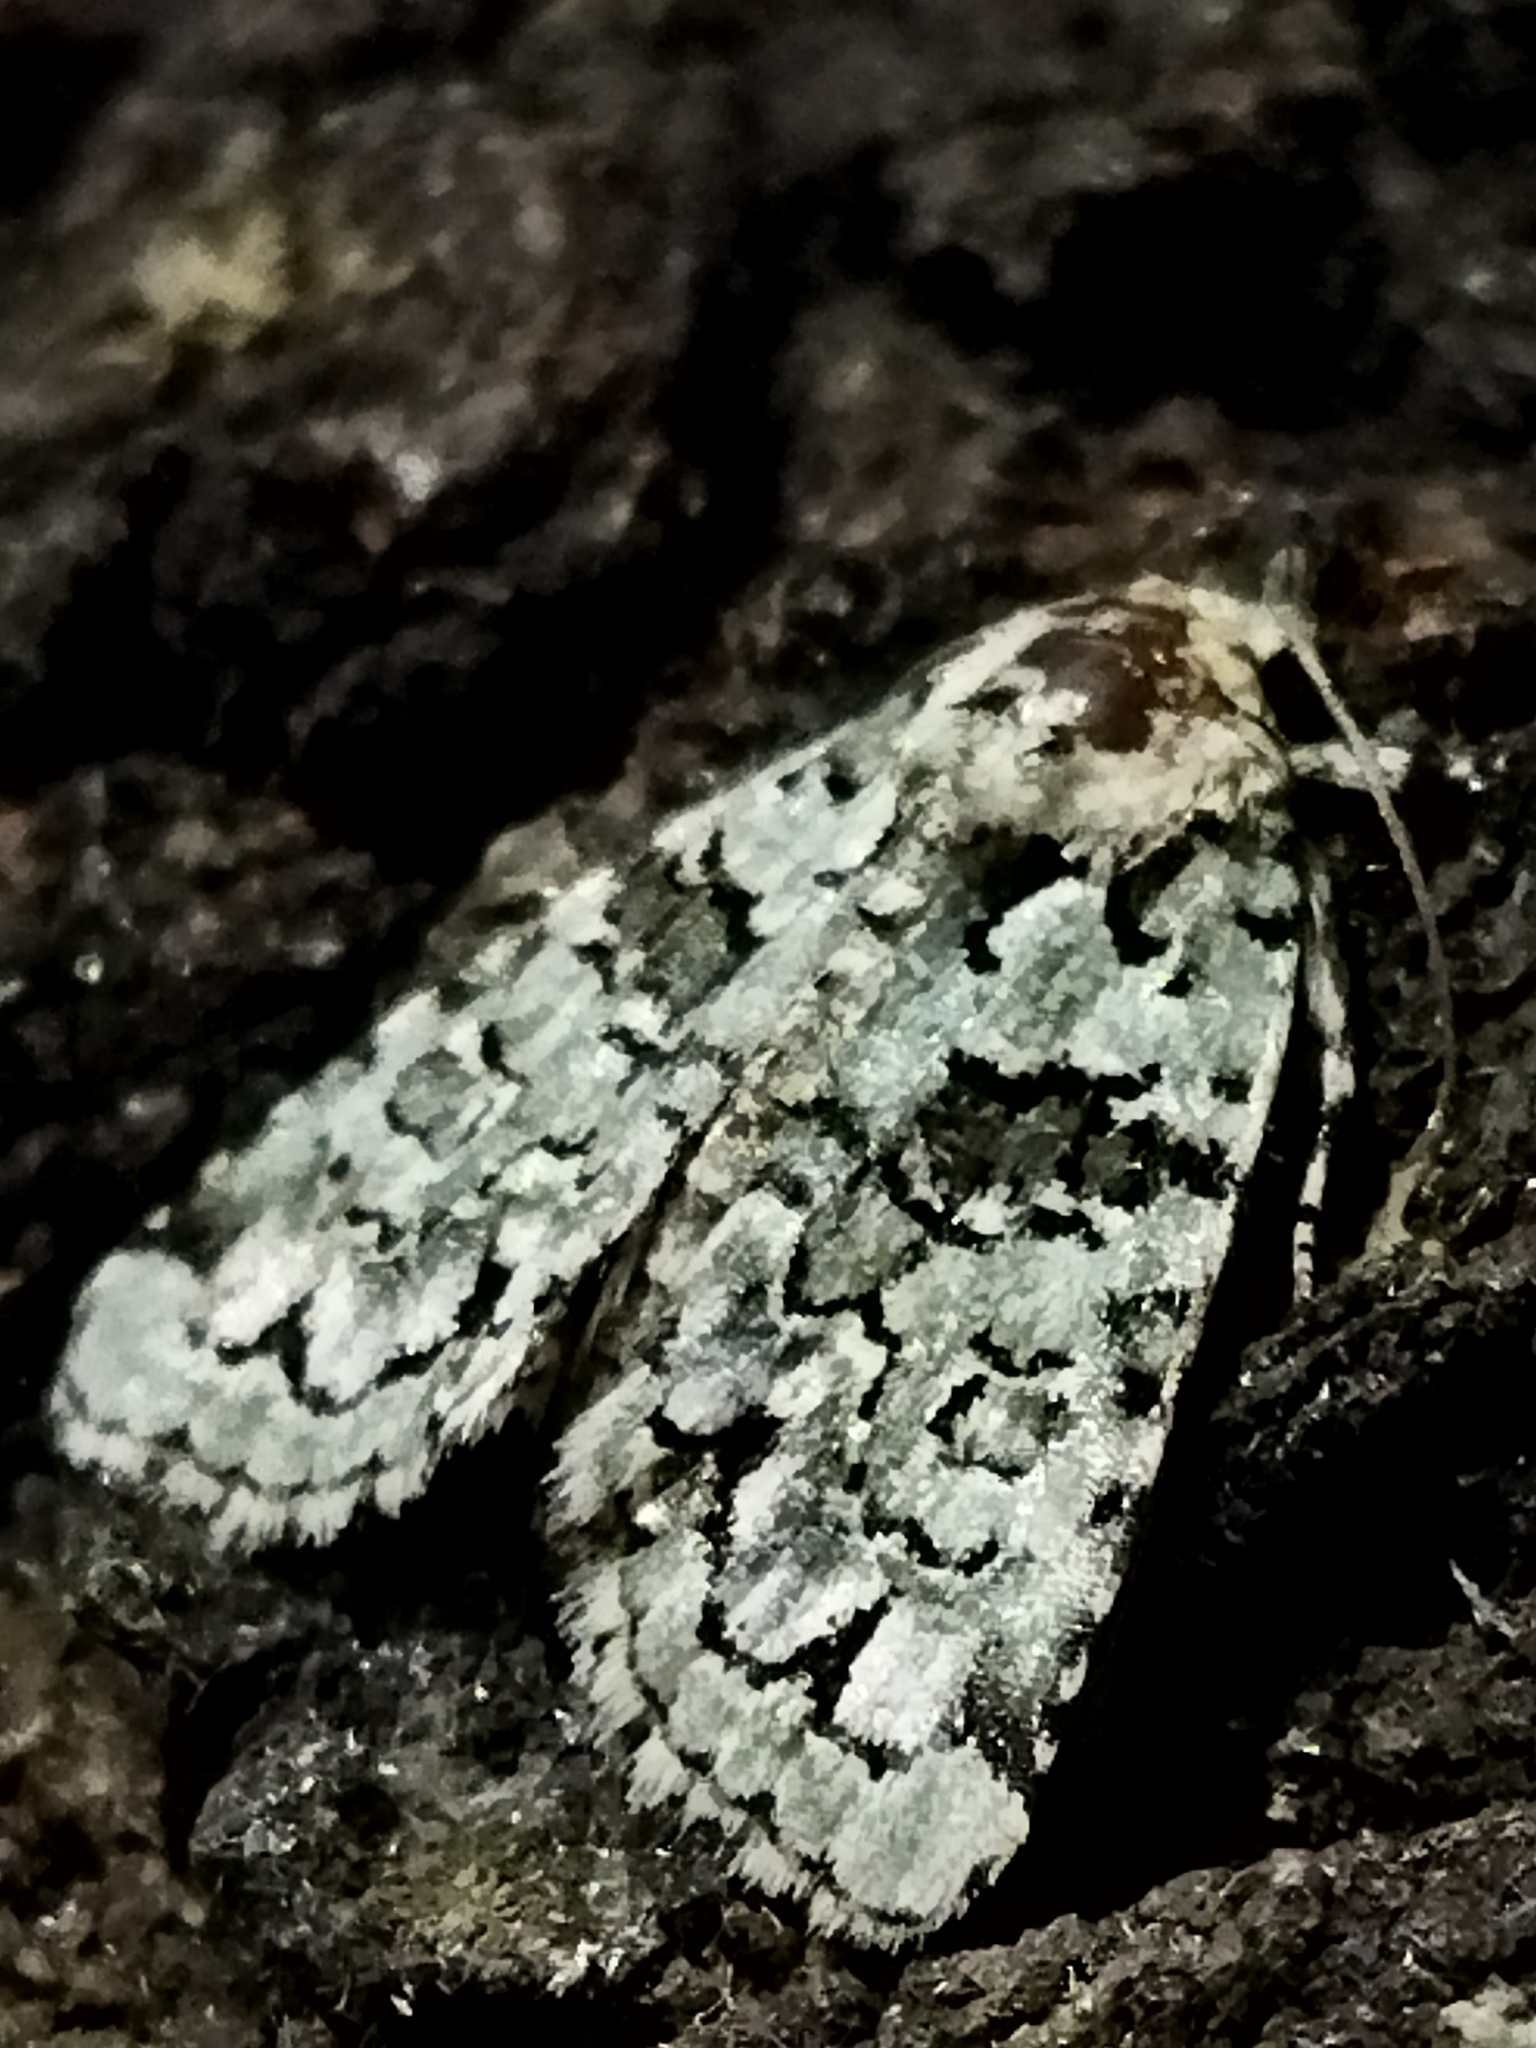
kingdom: Plantae
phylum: Chlorophyta
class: Ulvophyceae
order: Bryopsidales
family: Bryopsidaceae
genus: Bryopsis
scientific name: Bryopsis
